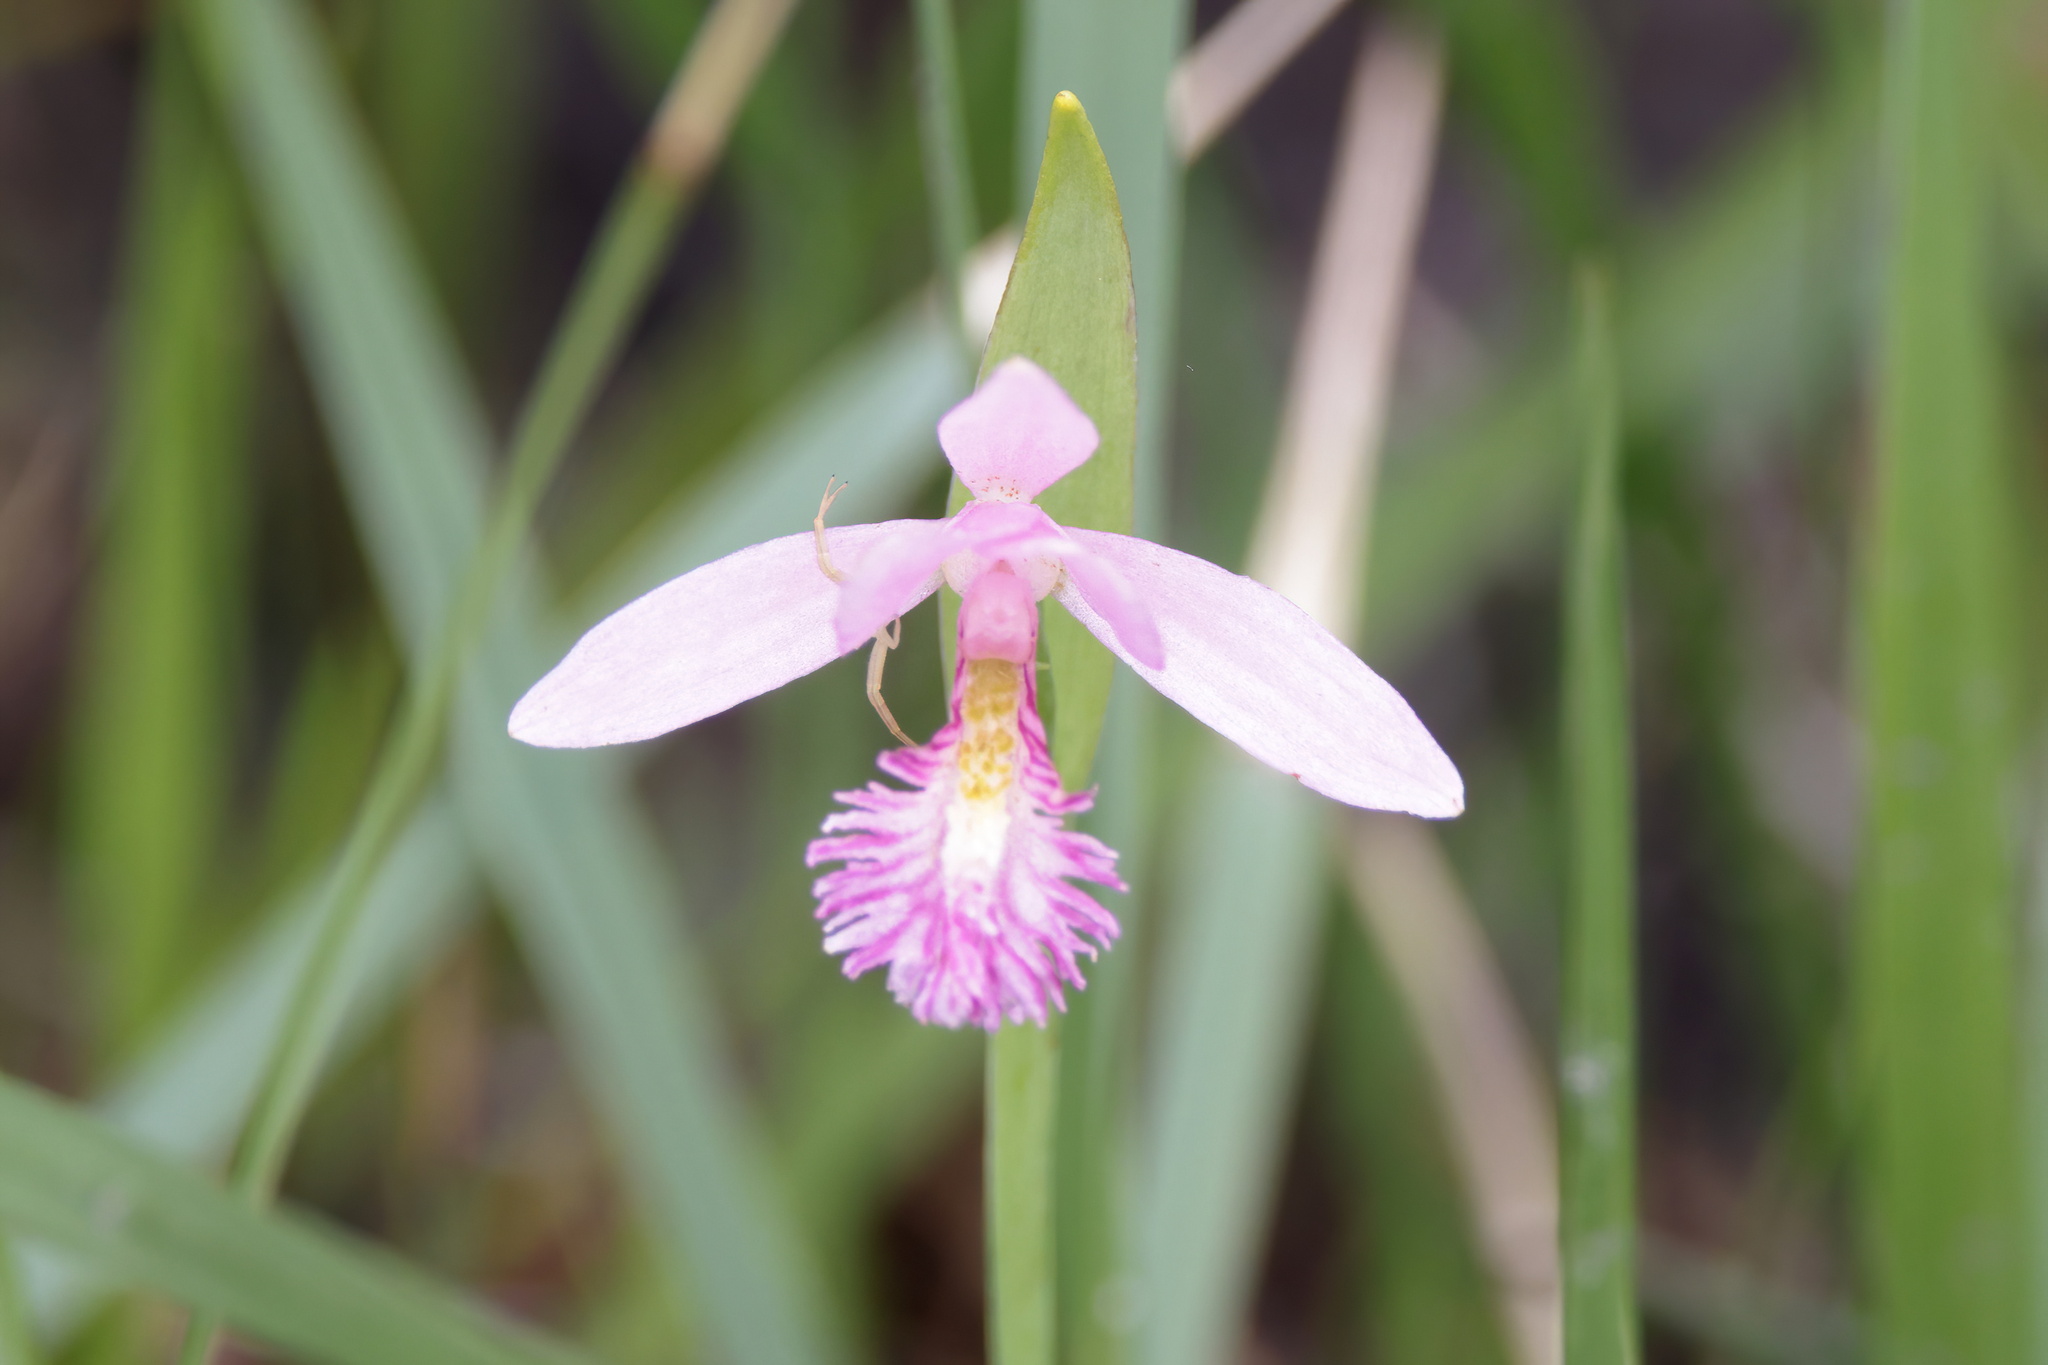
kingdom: Plantae
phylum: Tracheophyta
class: Liliopsida
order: Asparagales
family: Orchidaceae
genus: Pogonia
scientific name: Pogonia ophioglossoides
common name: Rose pogonia
